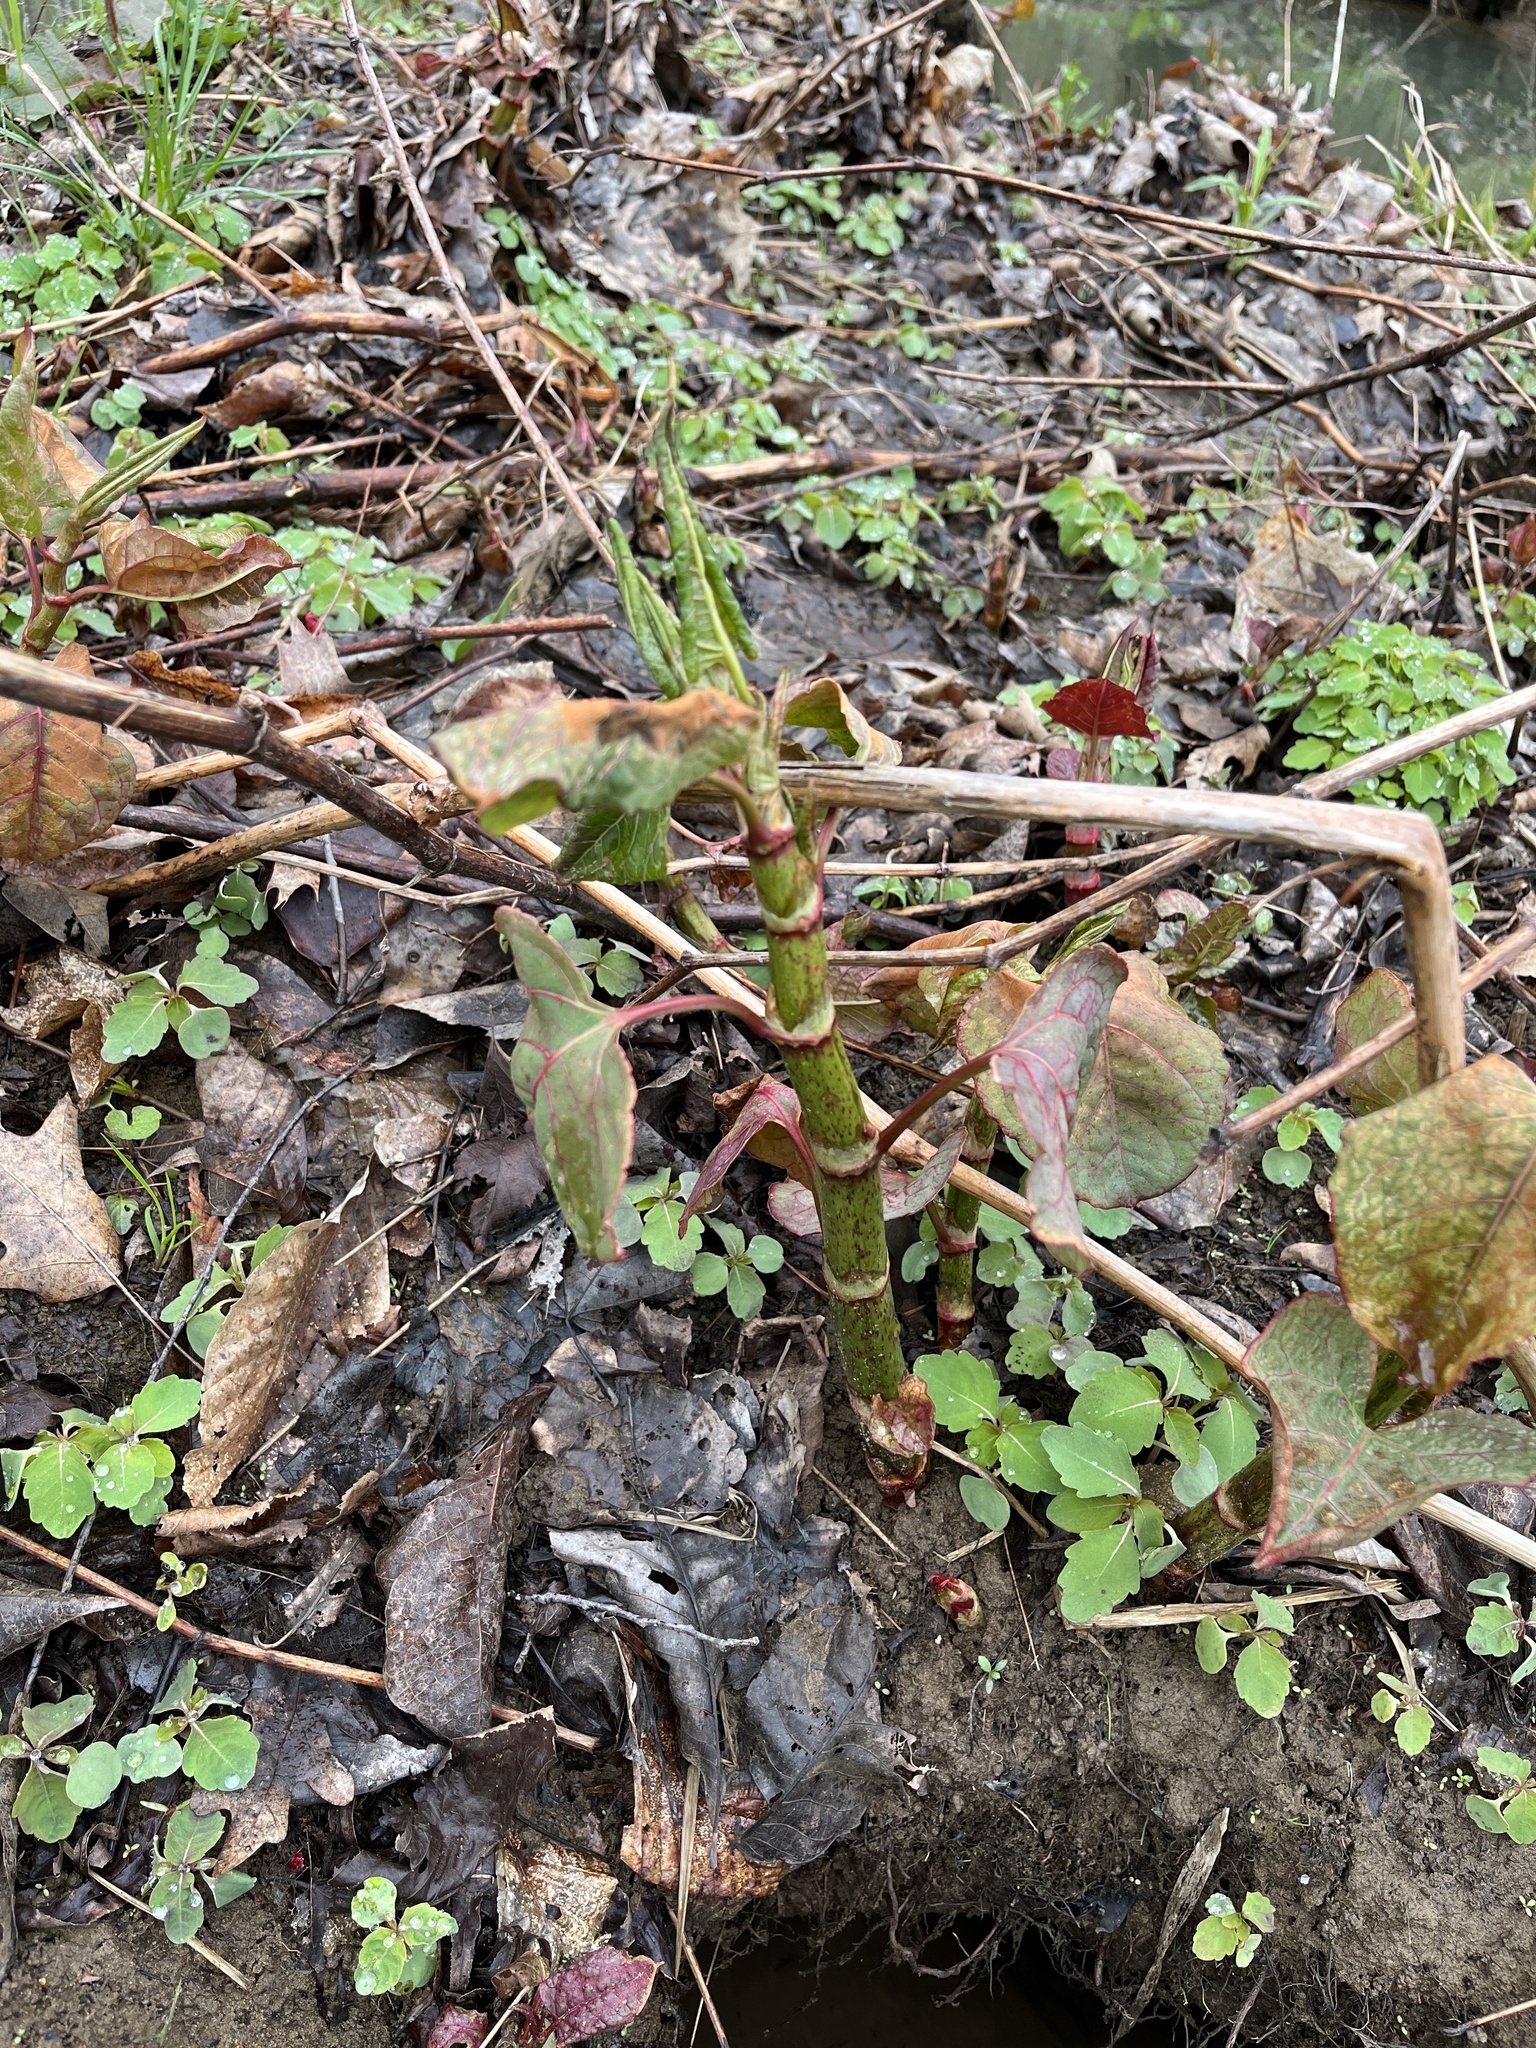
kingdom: Plantae
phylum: Tracheophyta
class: Magnoliopsida
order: Caryophyllales
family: Polygonaceae
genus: Reynoutria
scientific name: Reynoutria japonica
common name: Japanese knotweed
